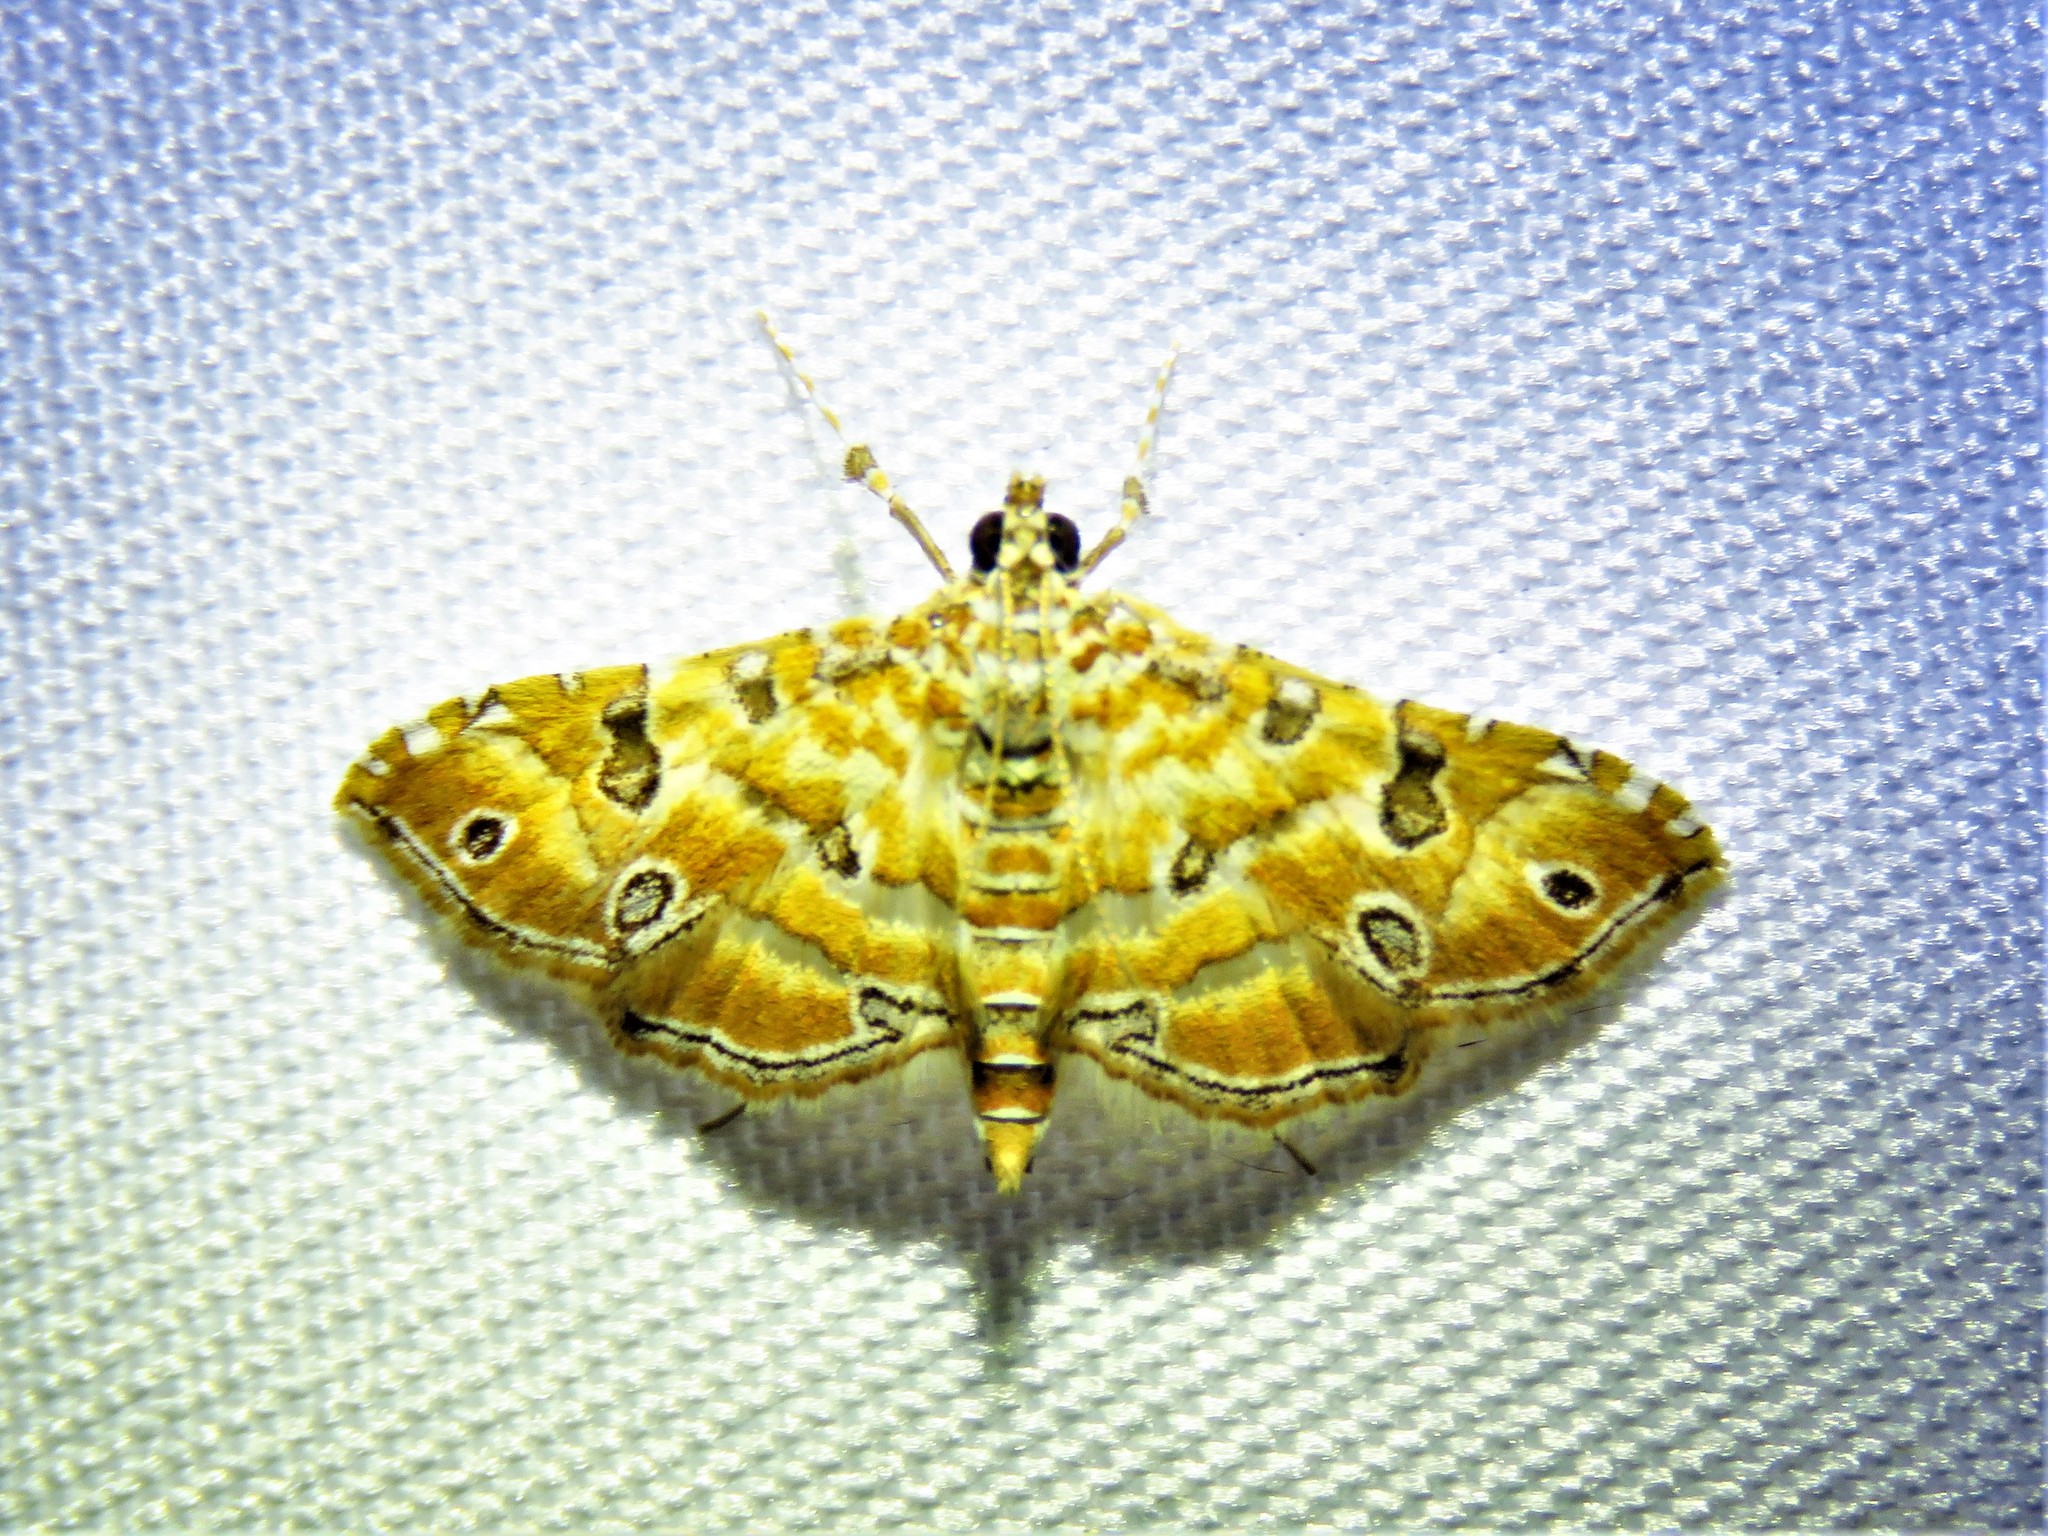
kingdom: Animalia
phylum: Arthropoda
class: Insecta
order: Lepidoptera
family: Crambidae
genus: Ommatospila
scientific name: Ommatospila narcaeusalis
